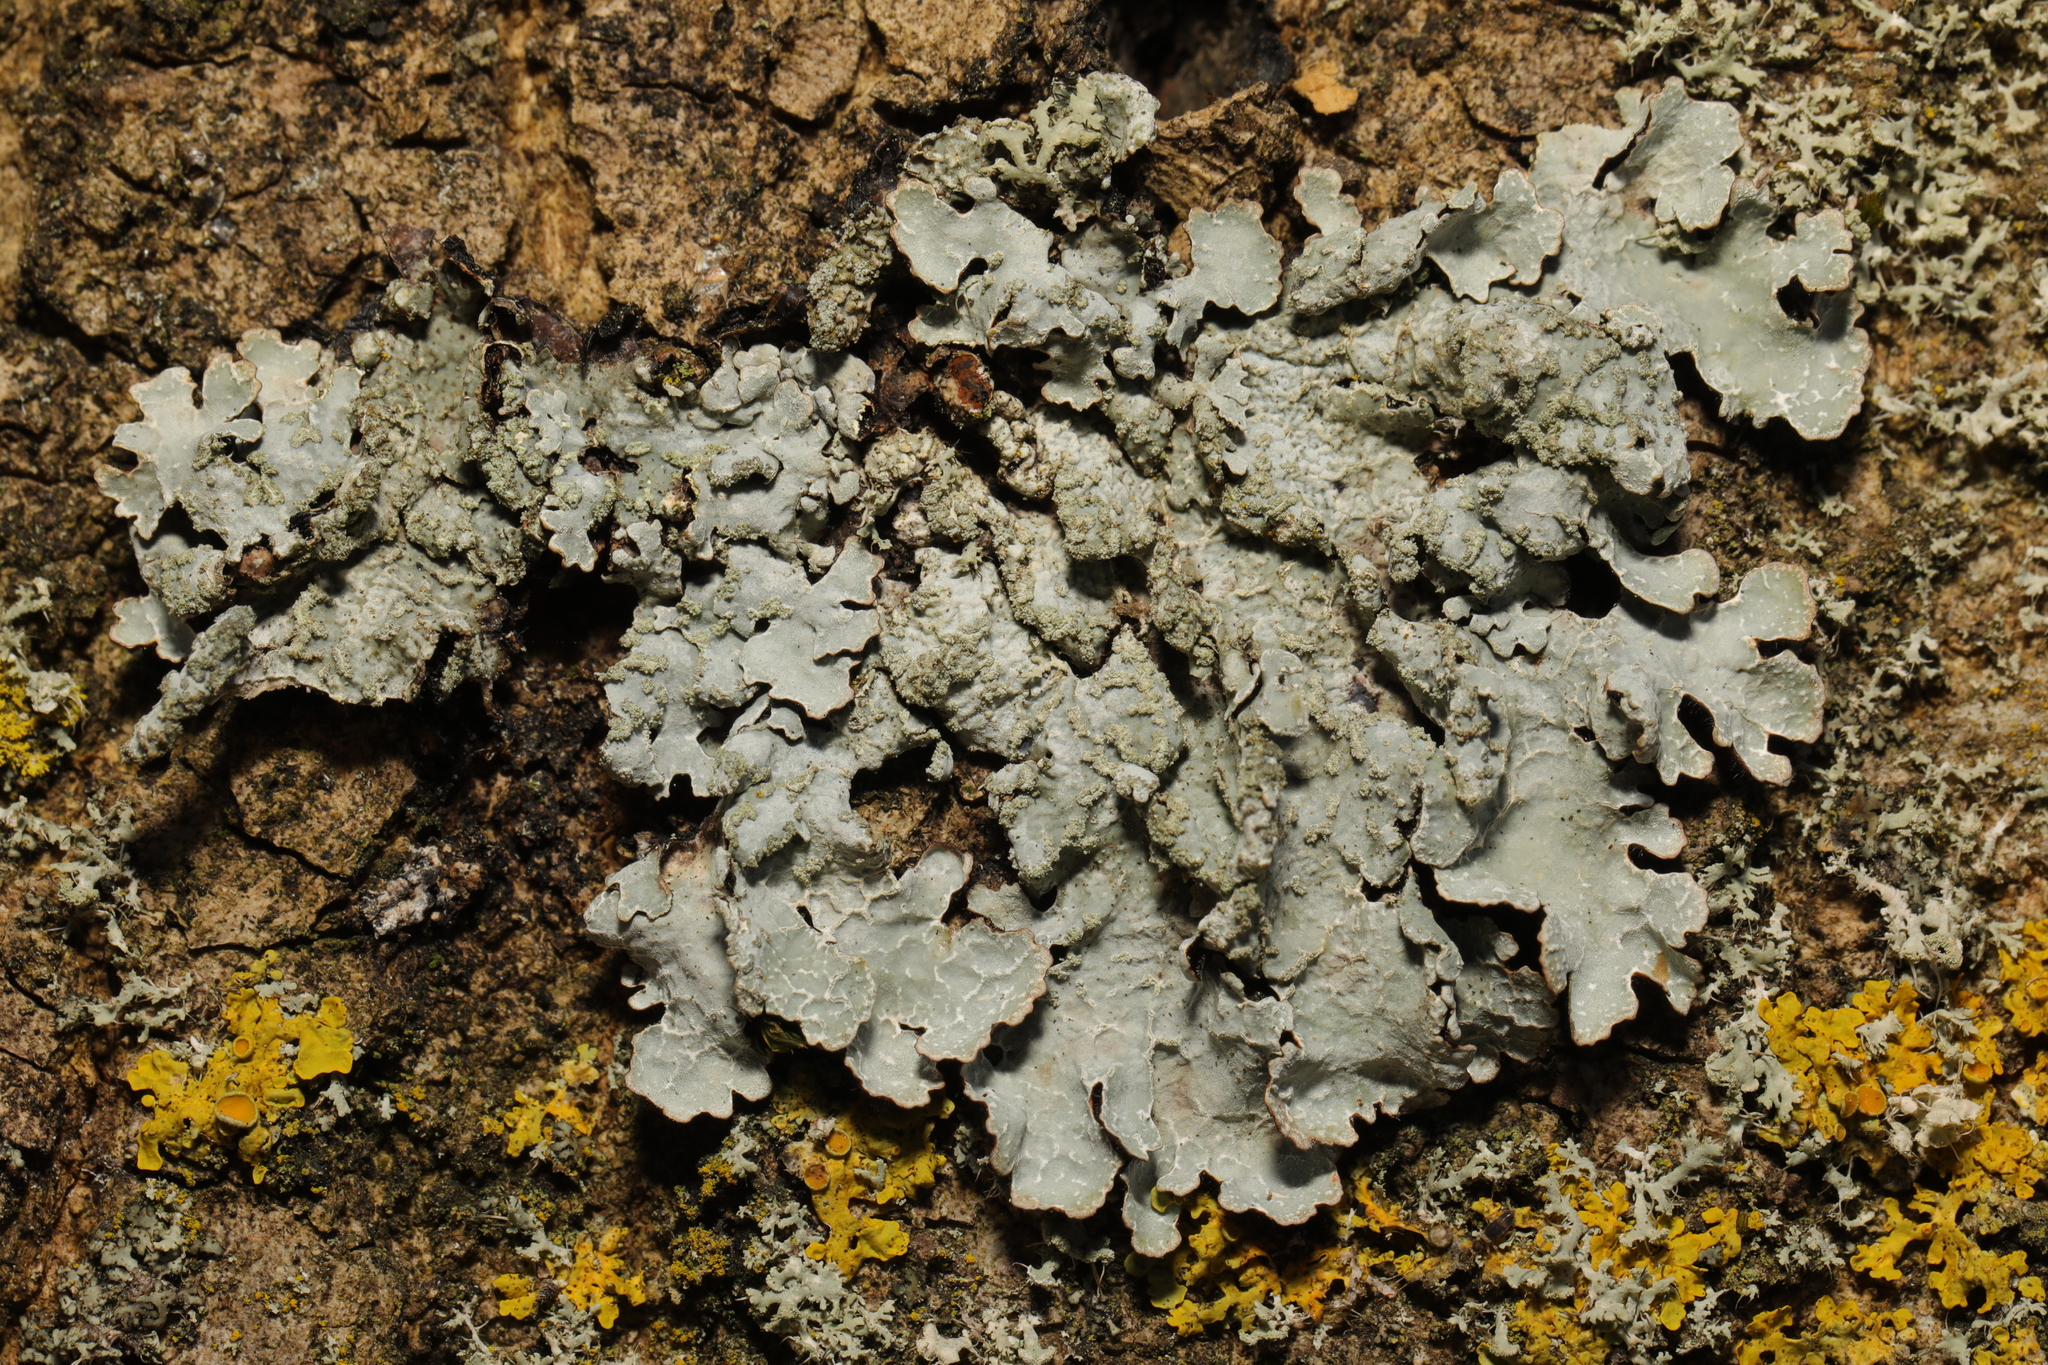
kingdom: Fungi
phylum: Ascomycota
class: Lecanoromycetes
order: Lecanorales
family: Parmeliaceae
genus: Parmelia
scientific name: Parmelia sulcata
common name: Netted shield lichen
